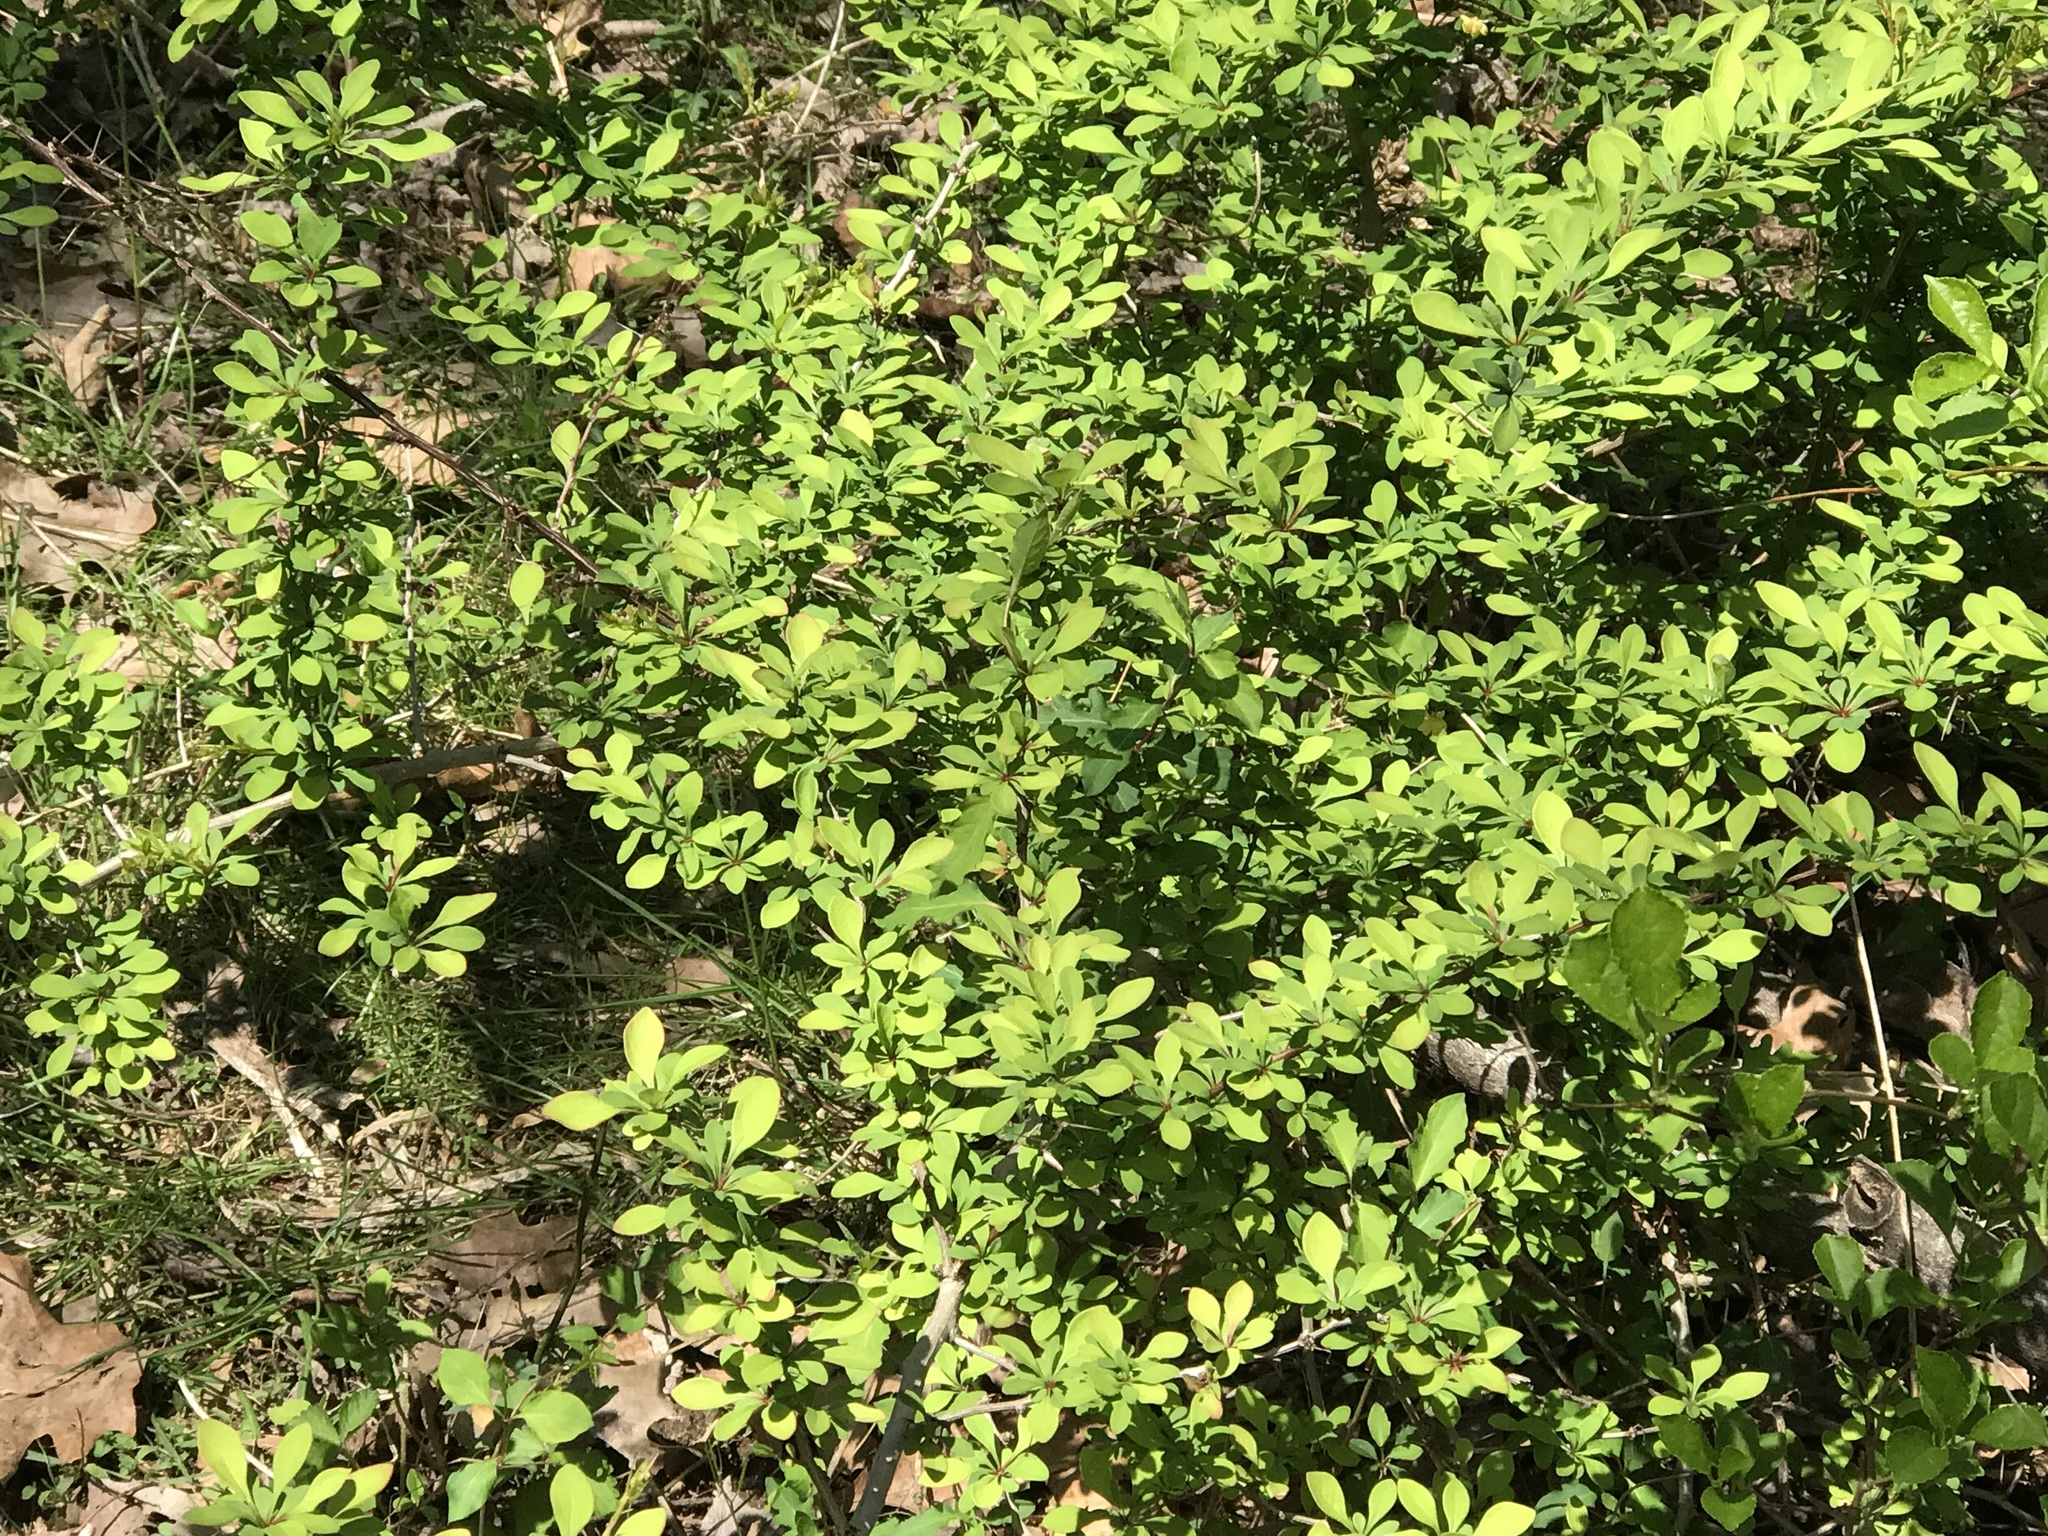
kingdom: Plantae
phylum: Tracheophyta
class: Magnoliopsida
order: Ranunculales
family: Berberidaceae
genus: Berberis
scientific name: Berberis thunbergii
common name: Japanese barberry
